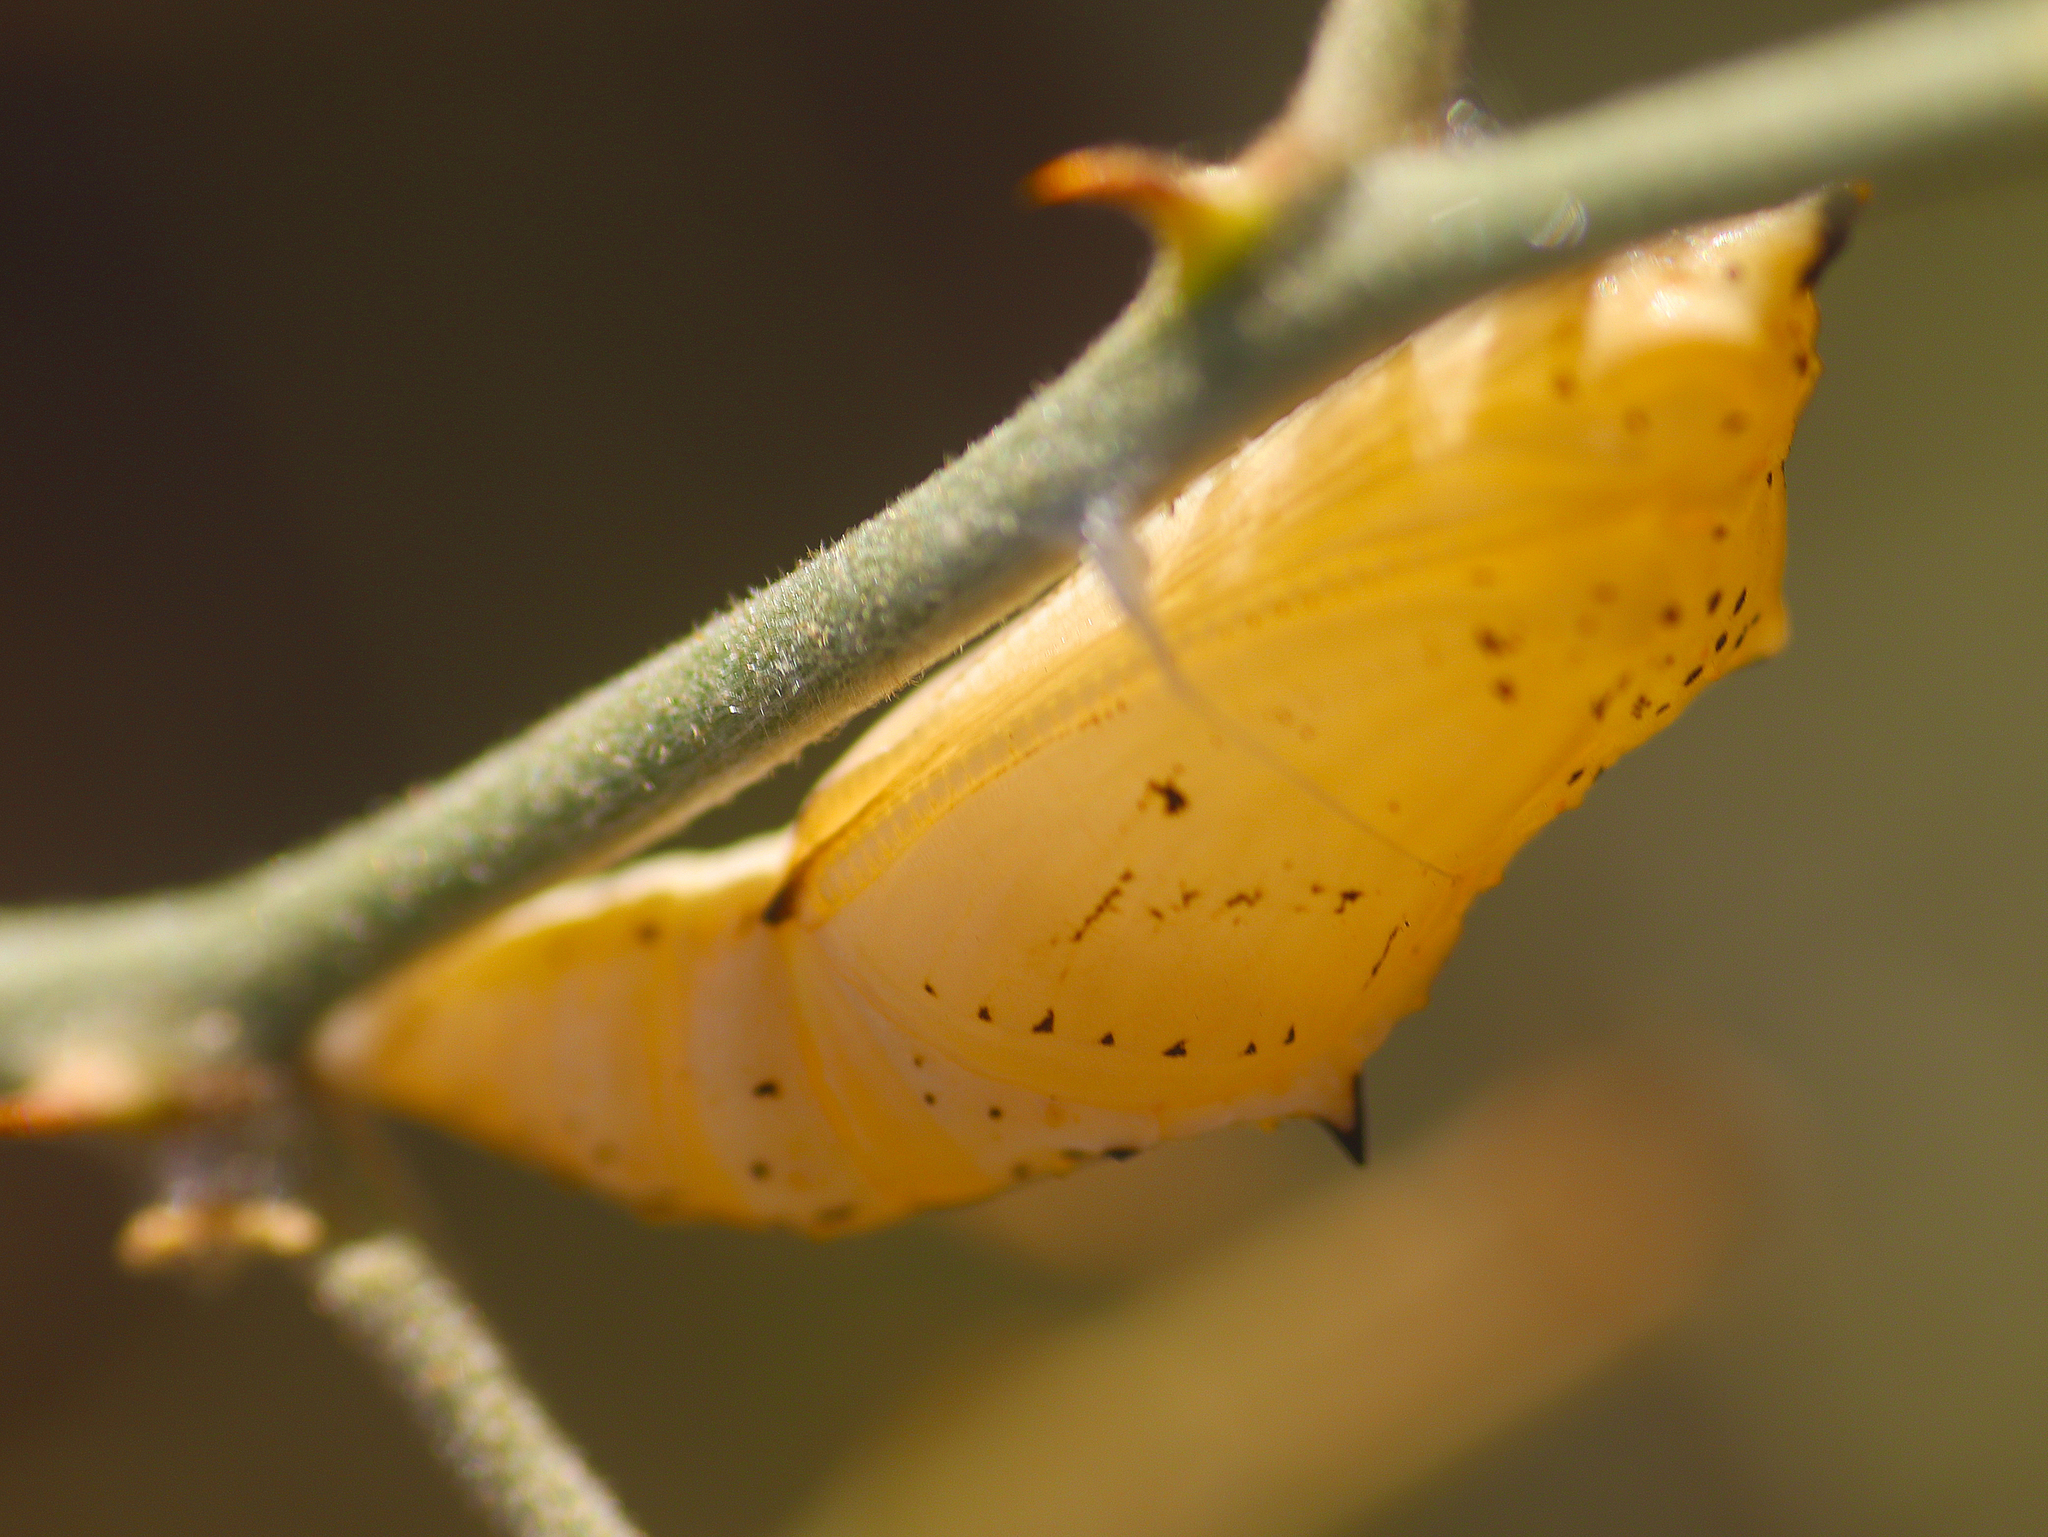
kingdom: Animalia
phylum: Arthropoda
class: Insecta
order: Lepidoptera
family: Pieridae
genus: Belenois
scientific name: Belenois java
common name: Caper white
